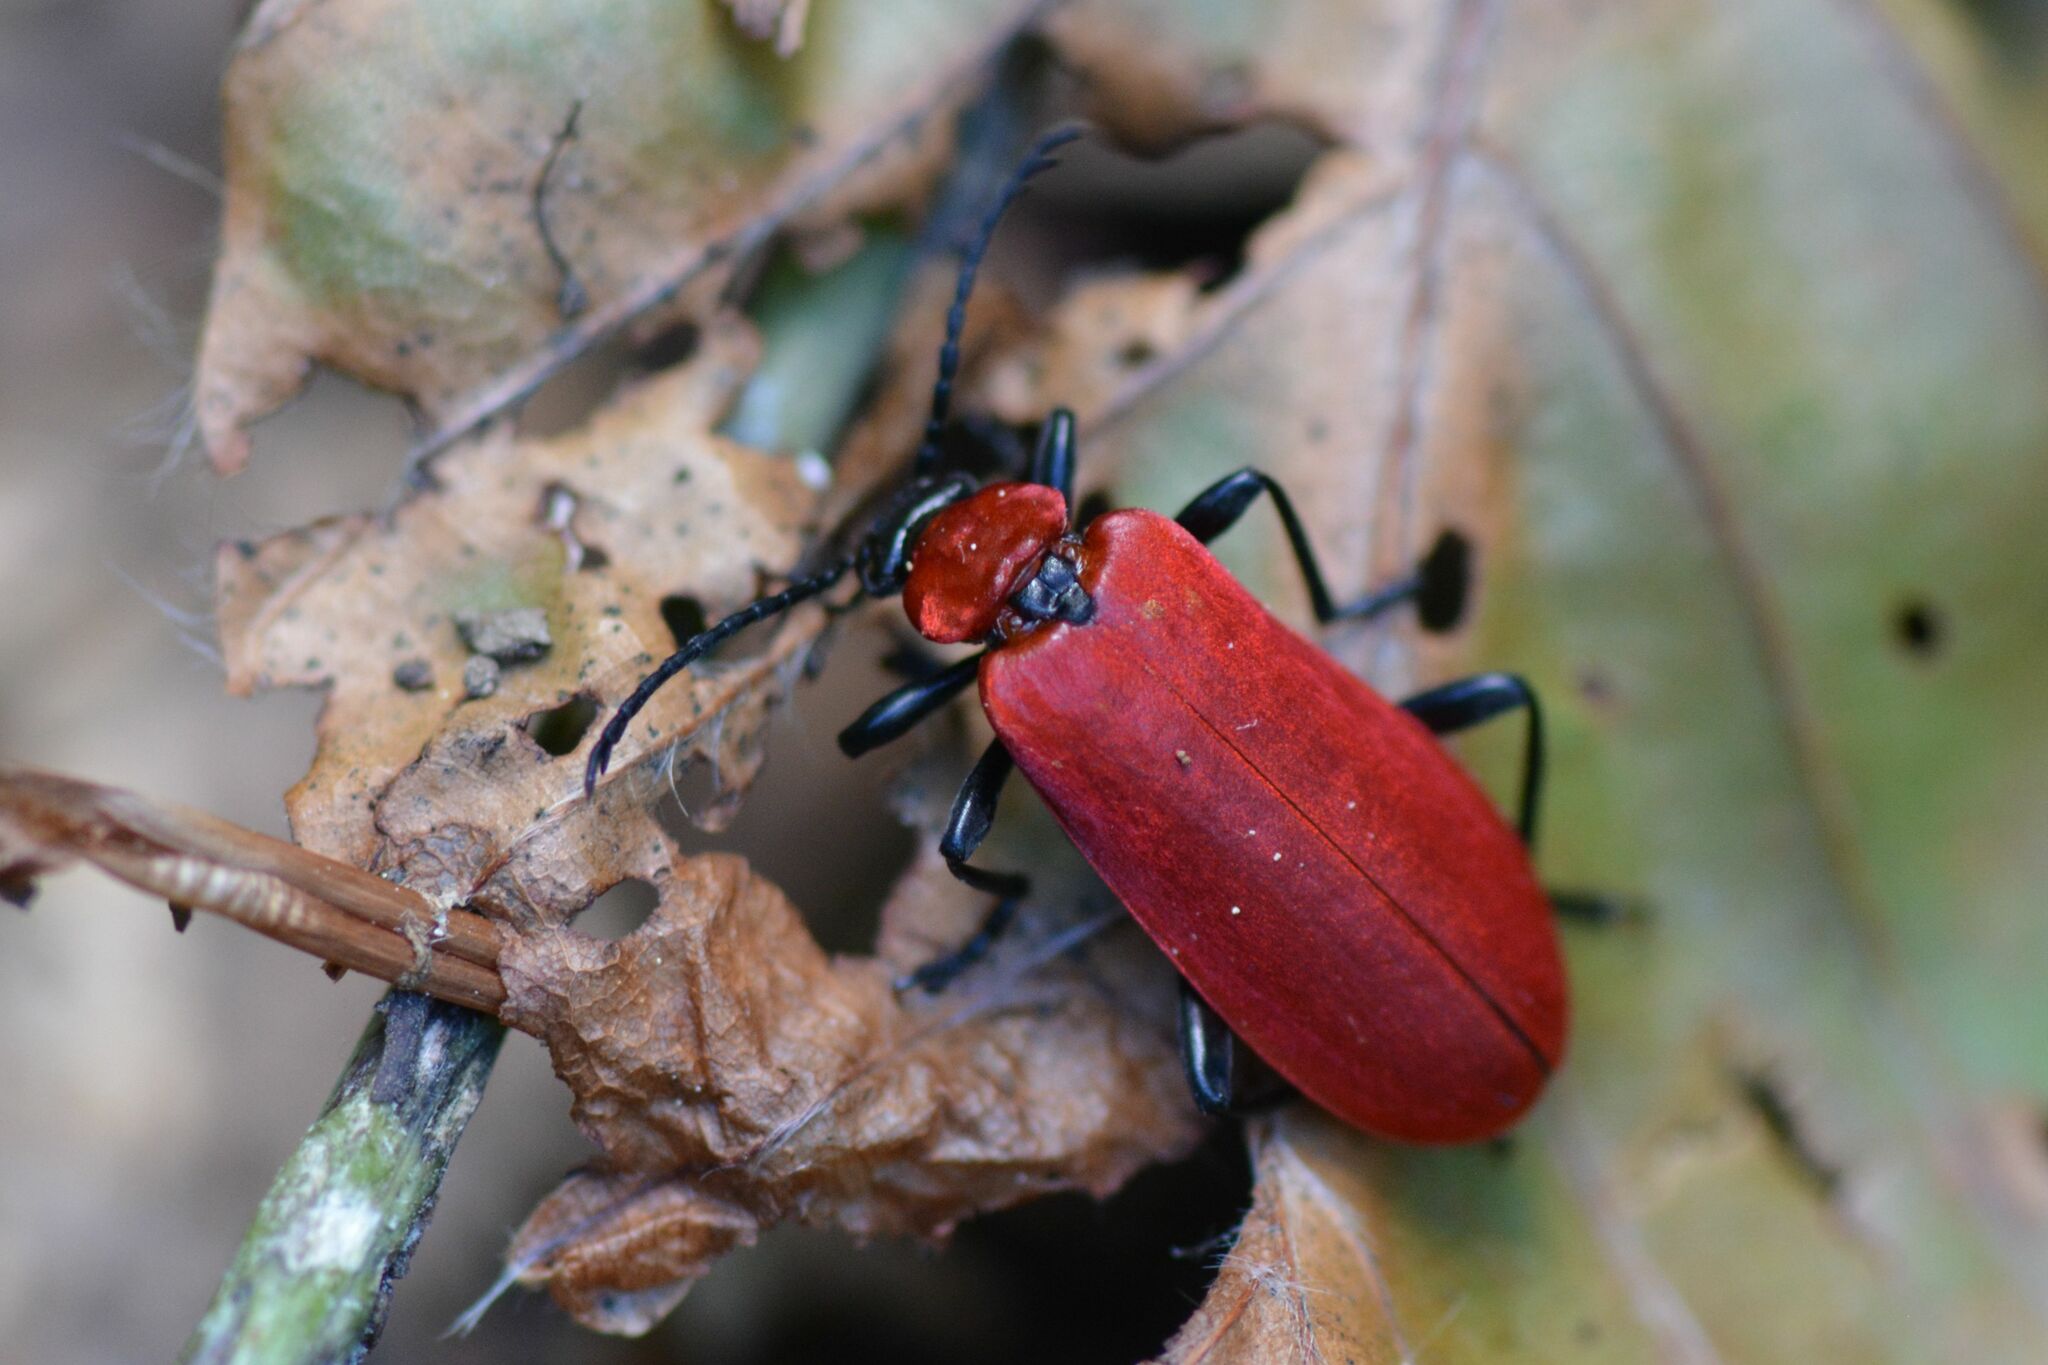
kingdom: Animalia
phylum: Arthropoda
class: Insecta
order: Coleoptera
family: Pyrochroidae
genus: Pyrochroa
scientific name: Pyrochroa coccinea
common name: Black-headed cardinal beetle
